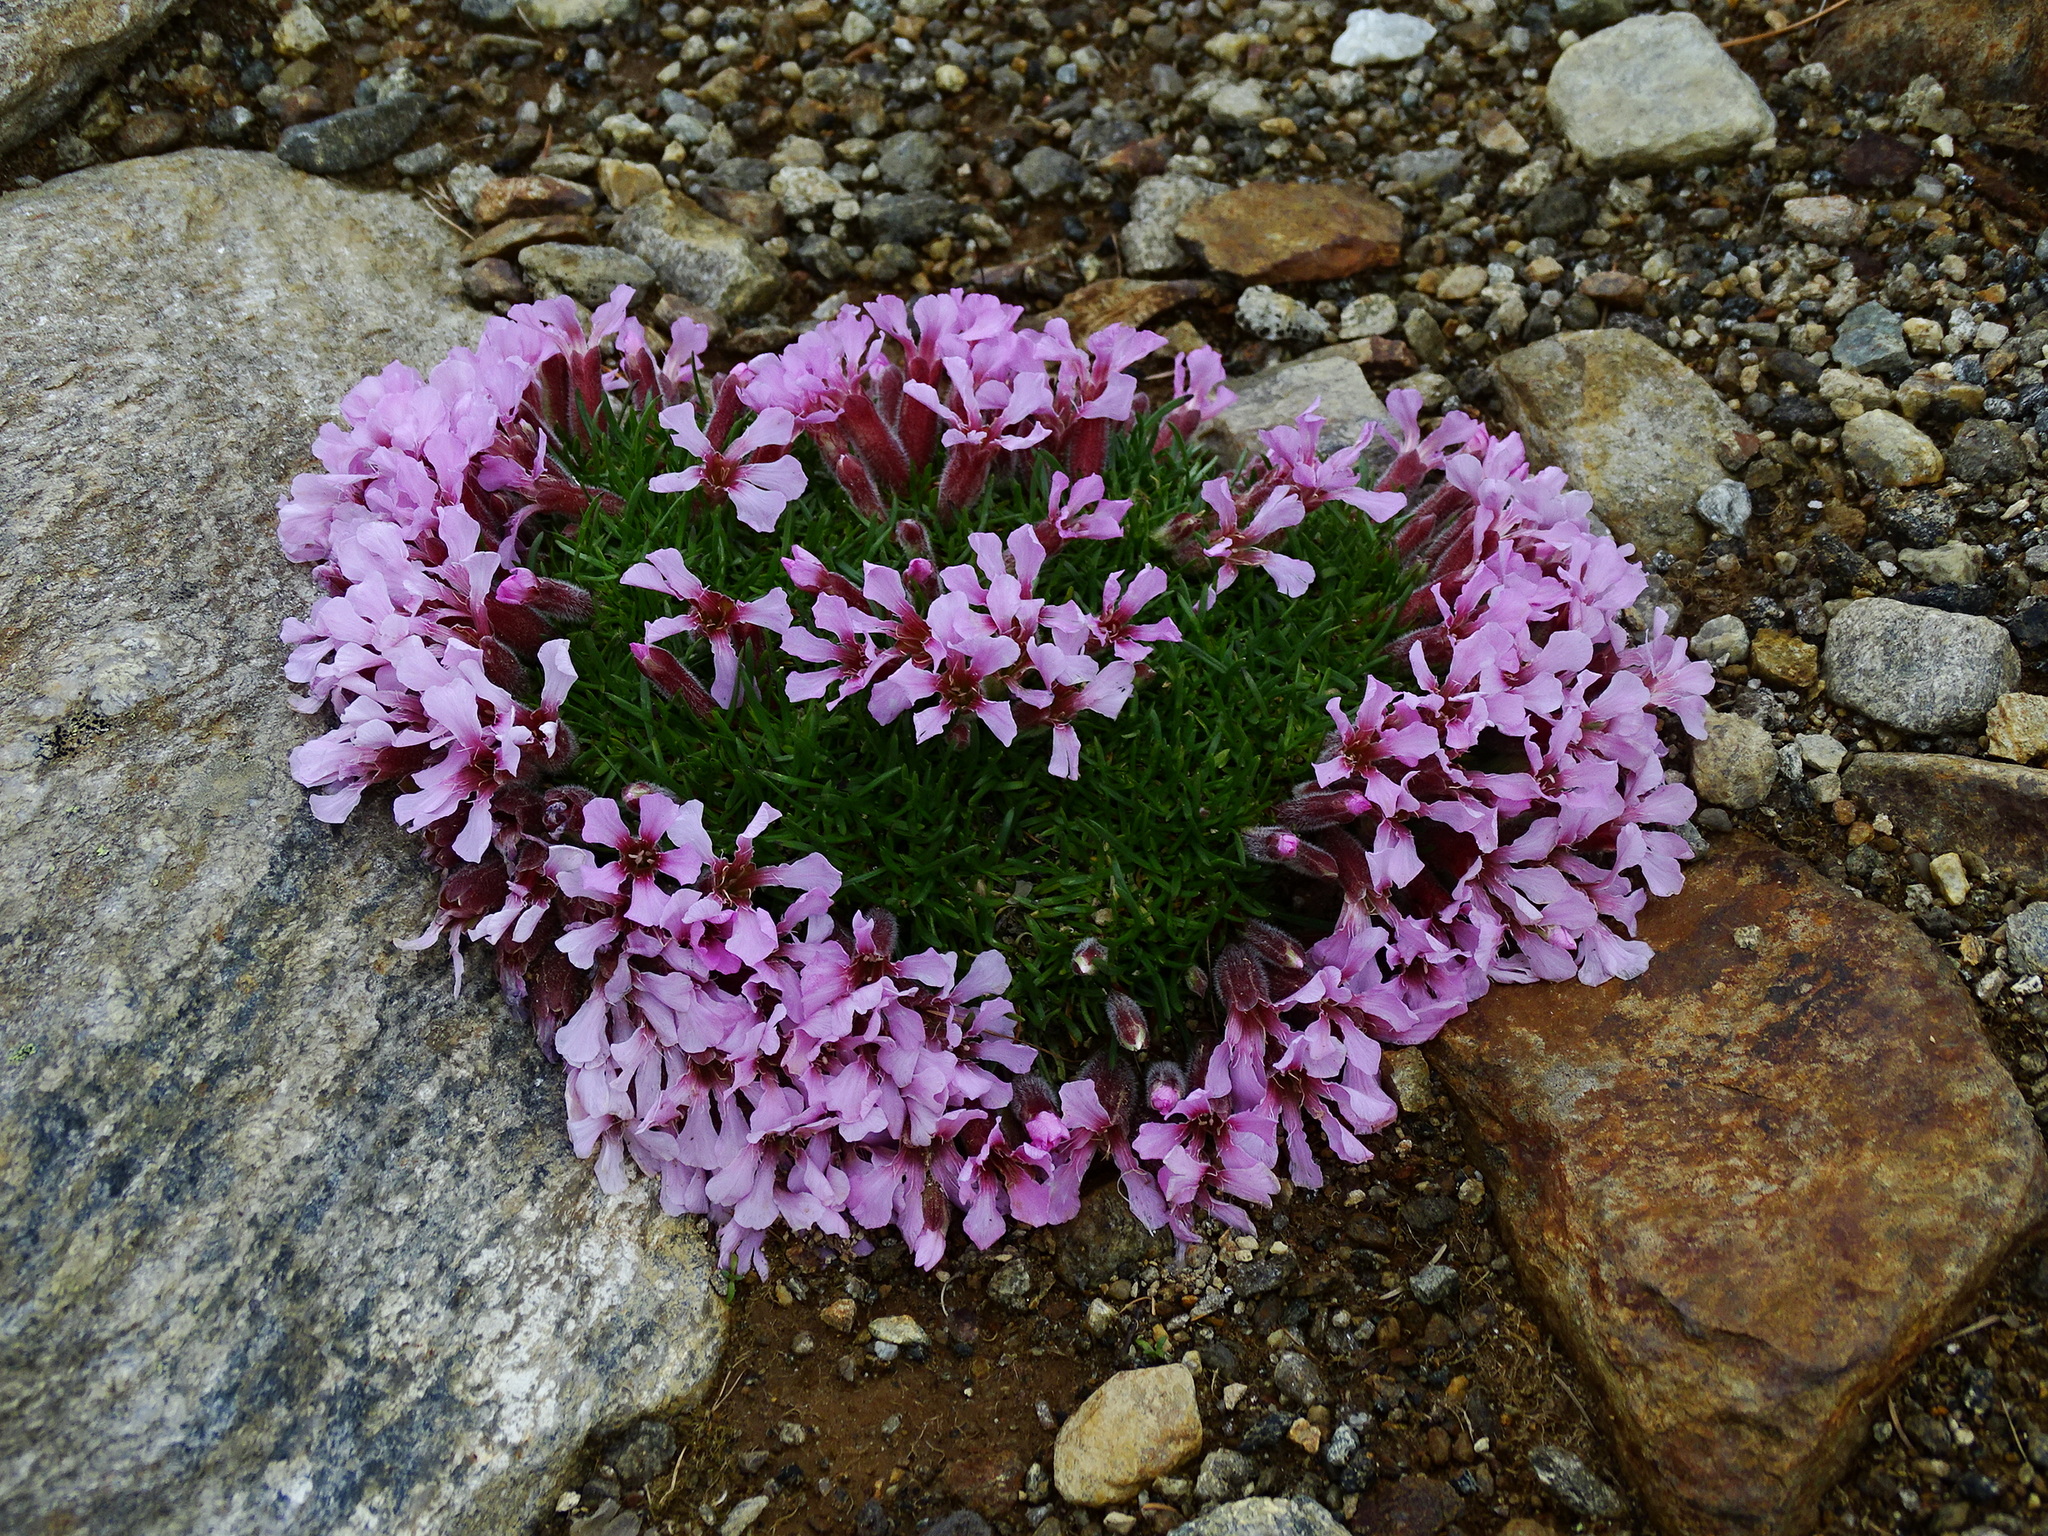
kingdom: Plantae
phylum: Tracheophyta
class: Magnoliopsida
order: Caryophyllales
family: Caryophyllaceae
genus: Saponaria
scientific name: Saponaria pumila
